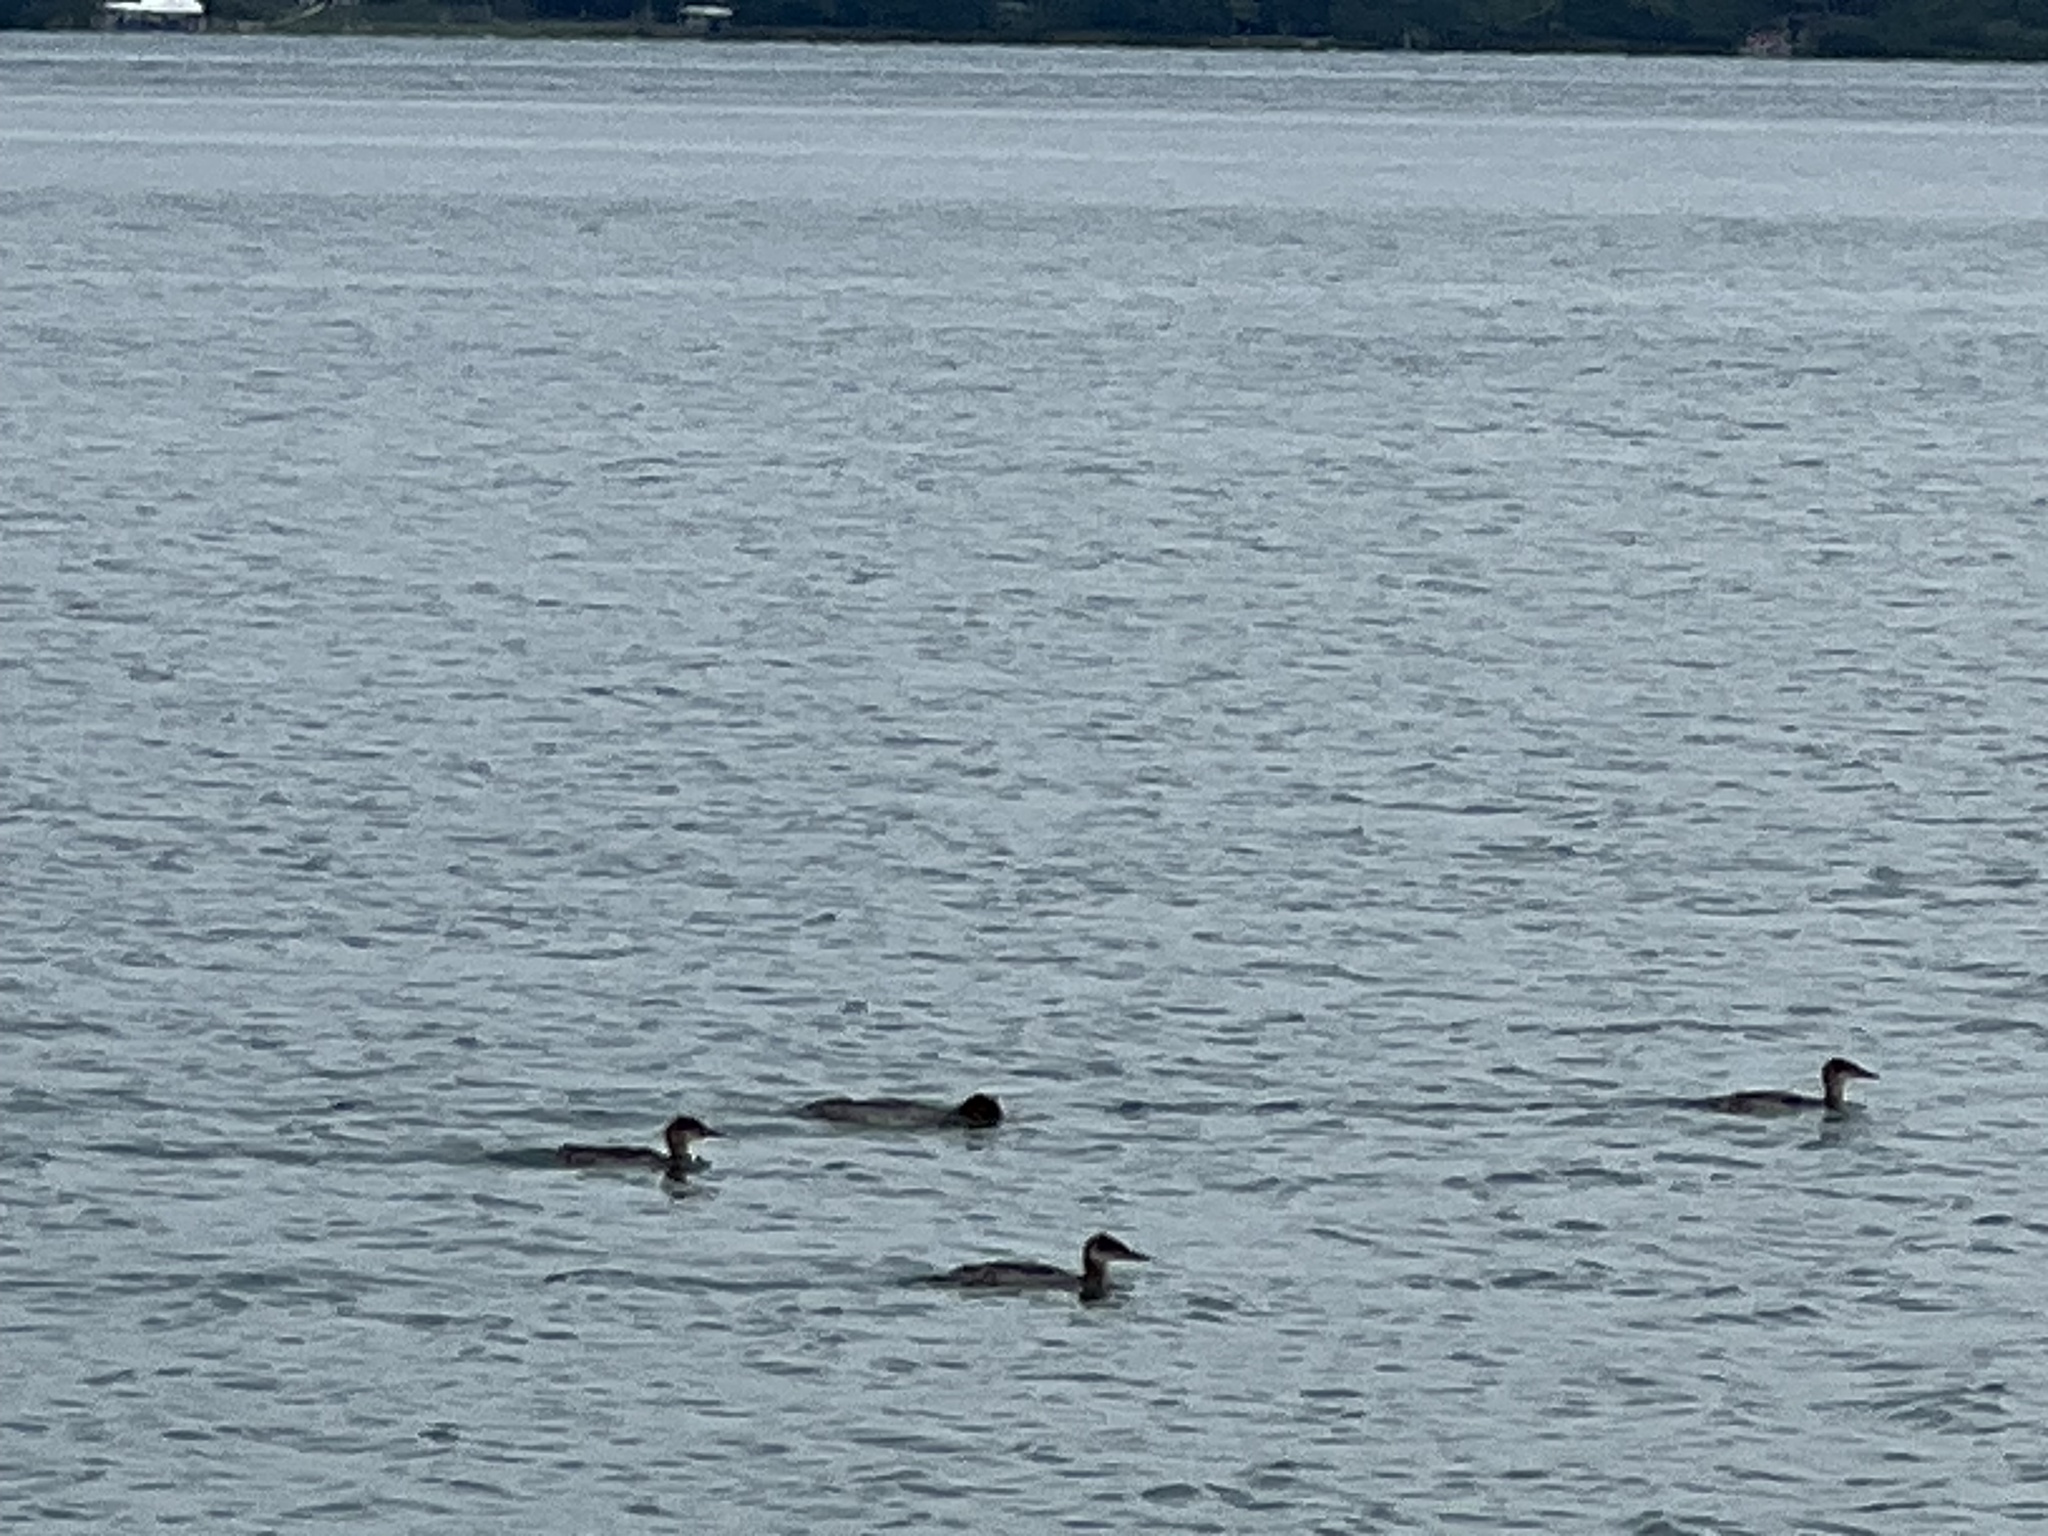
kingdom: Animalia
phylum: Chordata
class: Aves
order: Anseriformes
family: Anatidae
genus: Mergus
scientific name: Mergus merganser
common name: Common merganser
